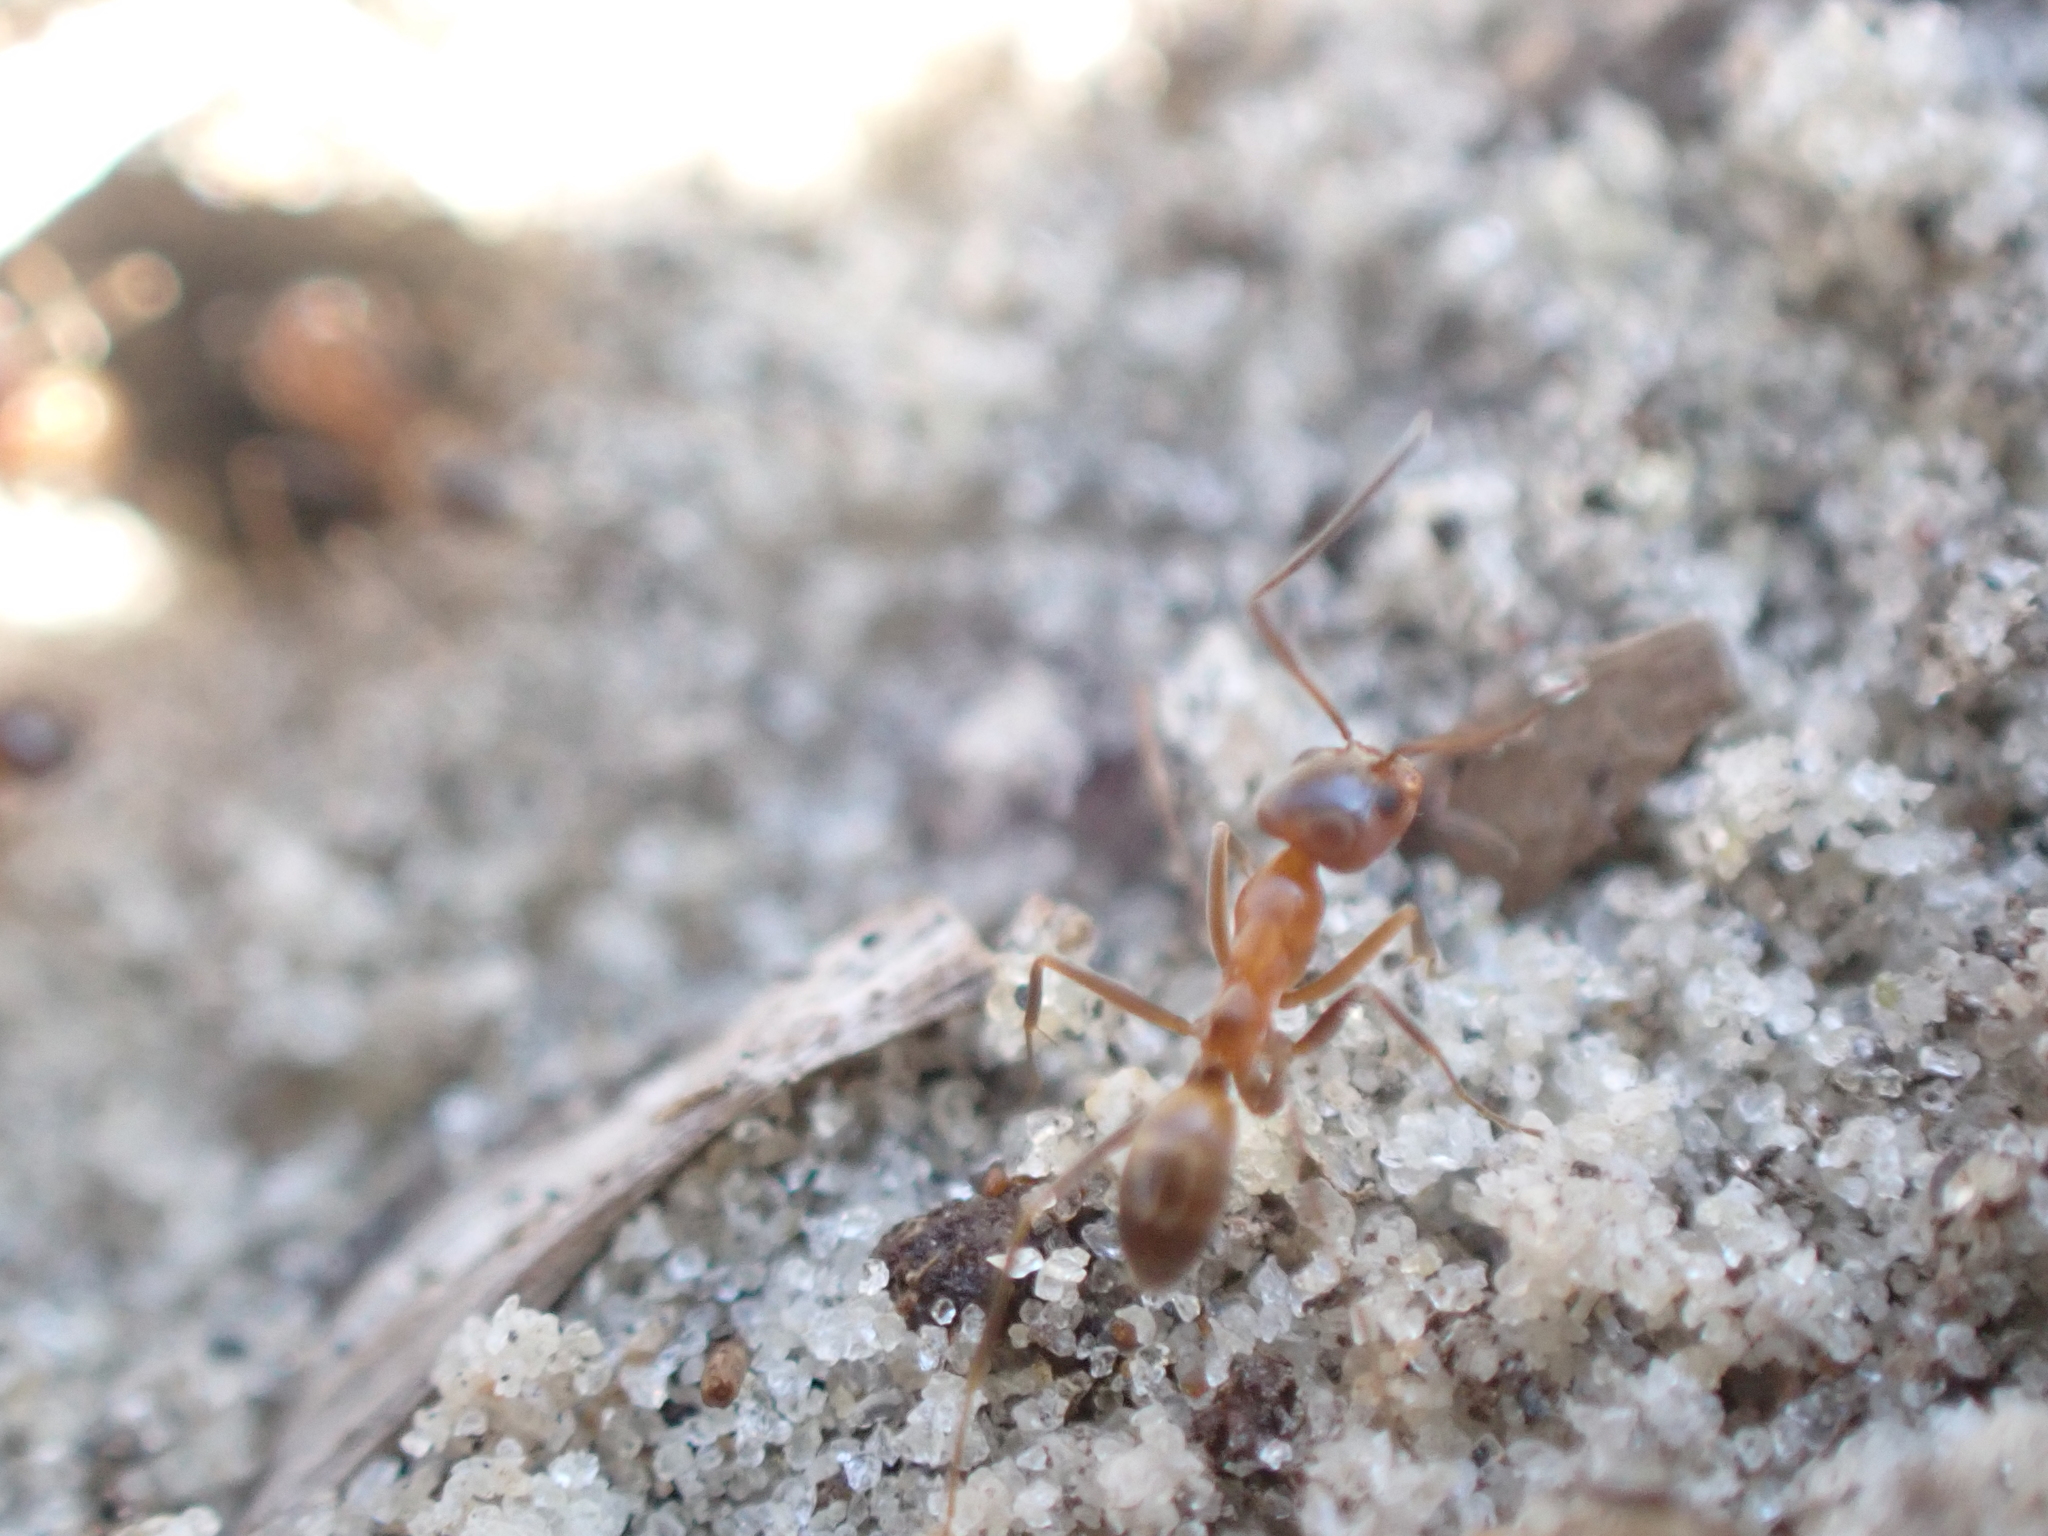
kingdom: Animalia
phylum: Arthropoda
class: Insecta
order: Hymenoptera
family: Formicidae
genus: Dorymyrmex
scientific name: Dorymyrmex bureni
